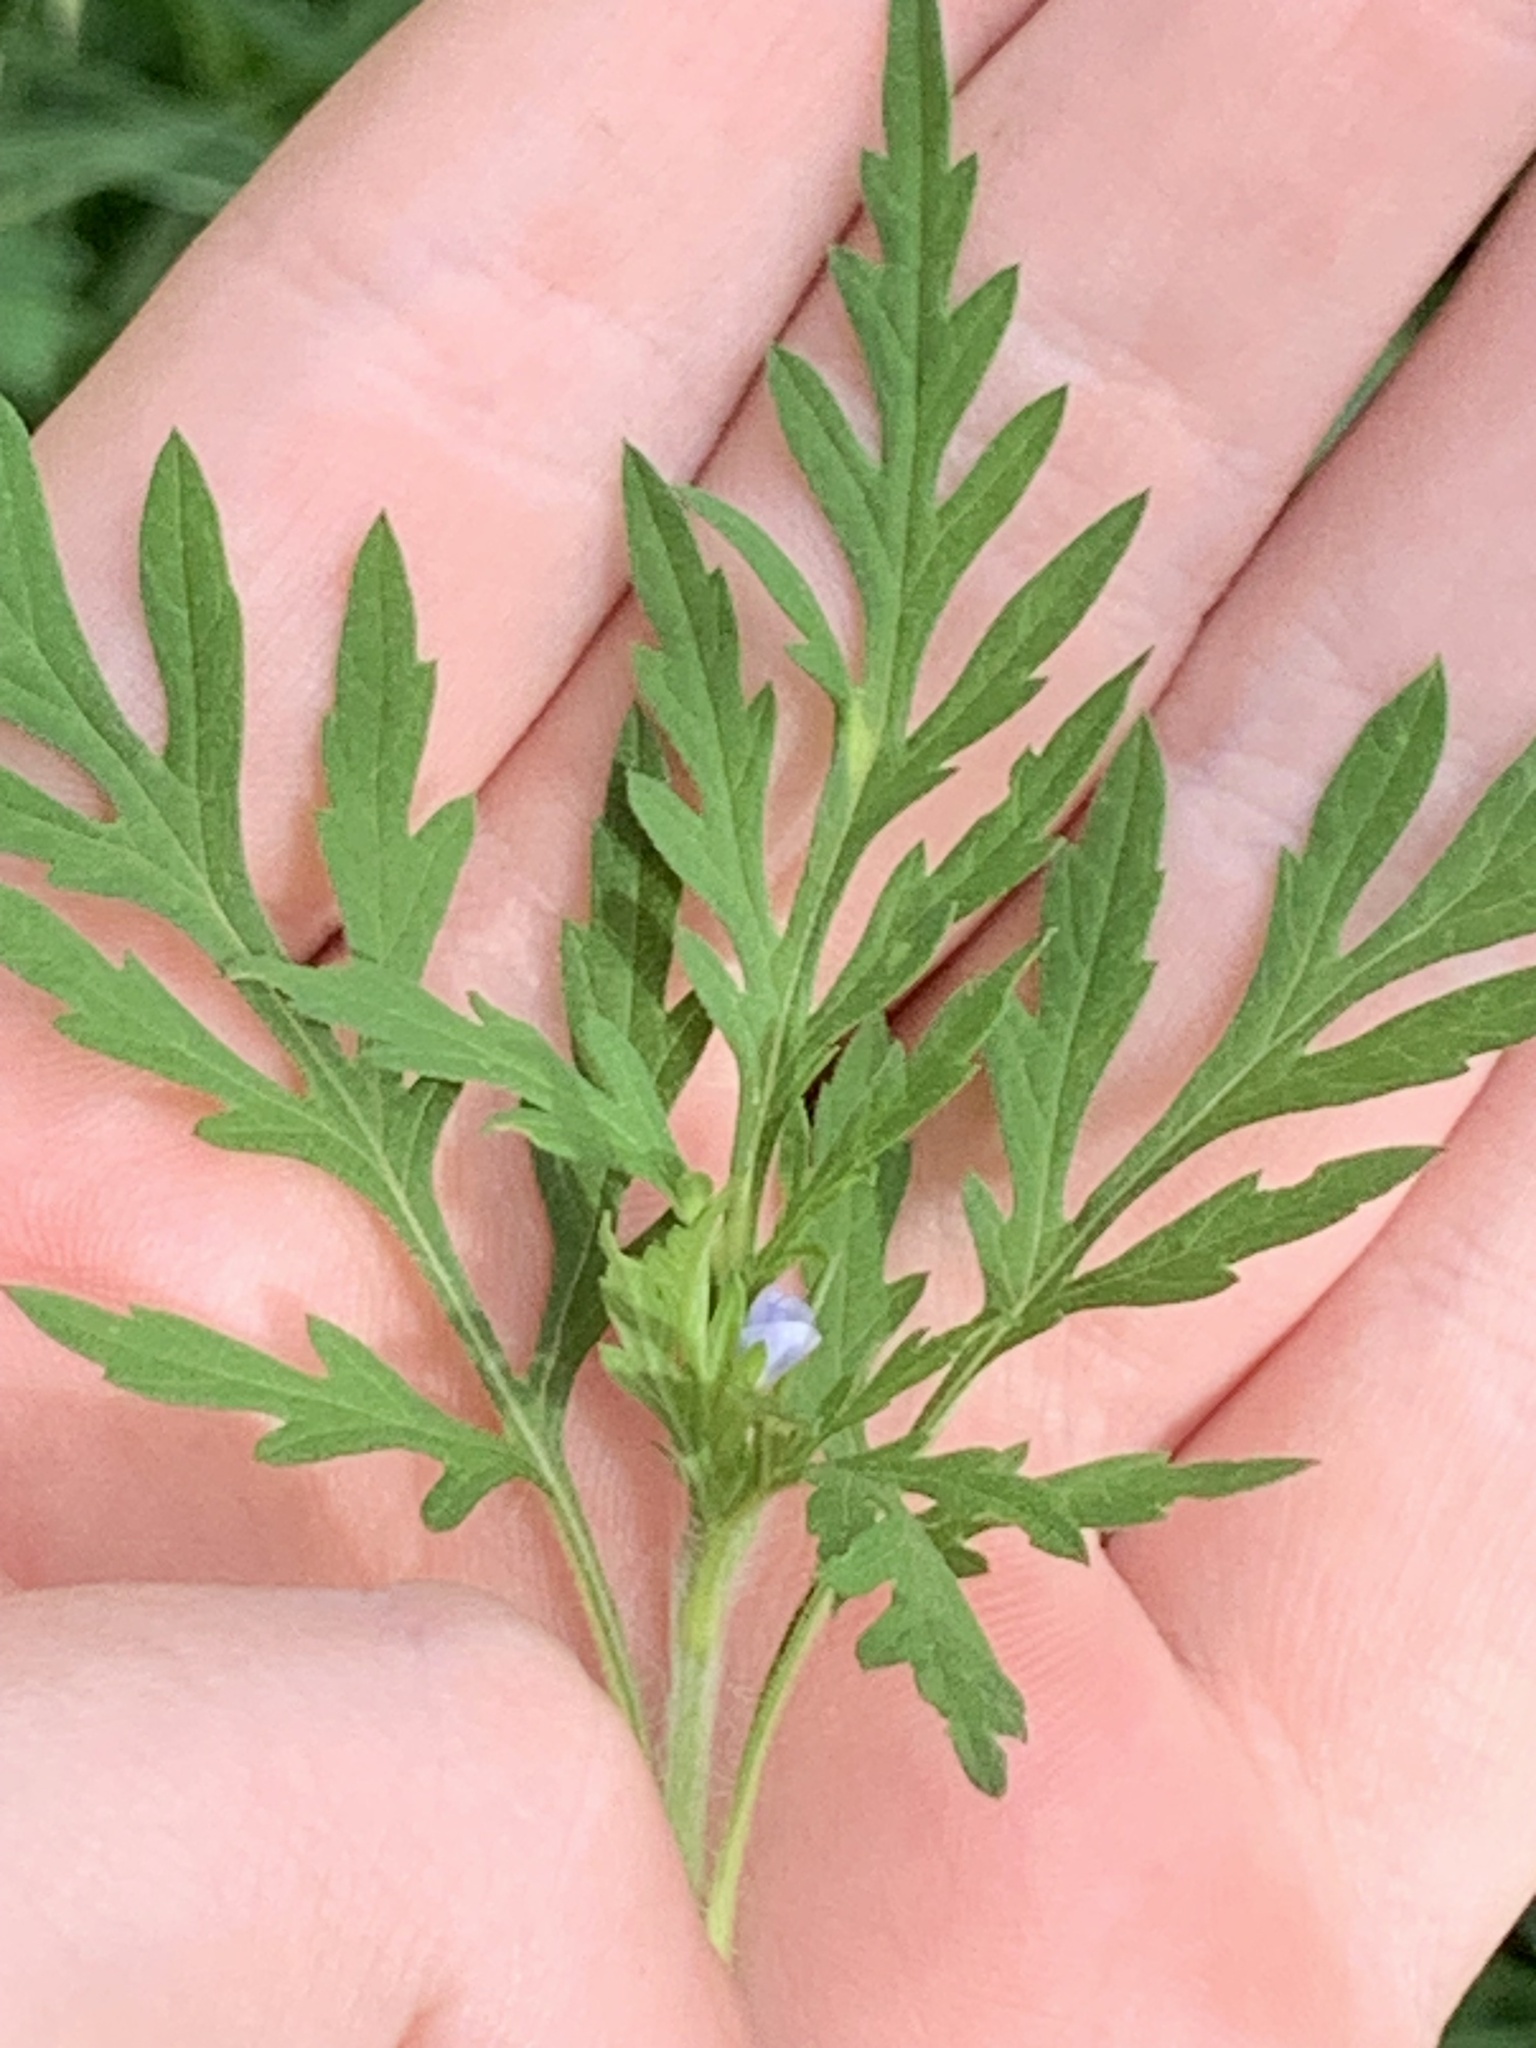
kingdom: Plantae
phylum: Tracheophyta
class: Magnoliopsida
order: Asterales
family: Asteraceae
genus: Ambrosia
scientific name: Ambrosia artemisiifolia
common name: Annual ragweed
